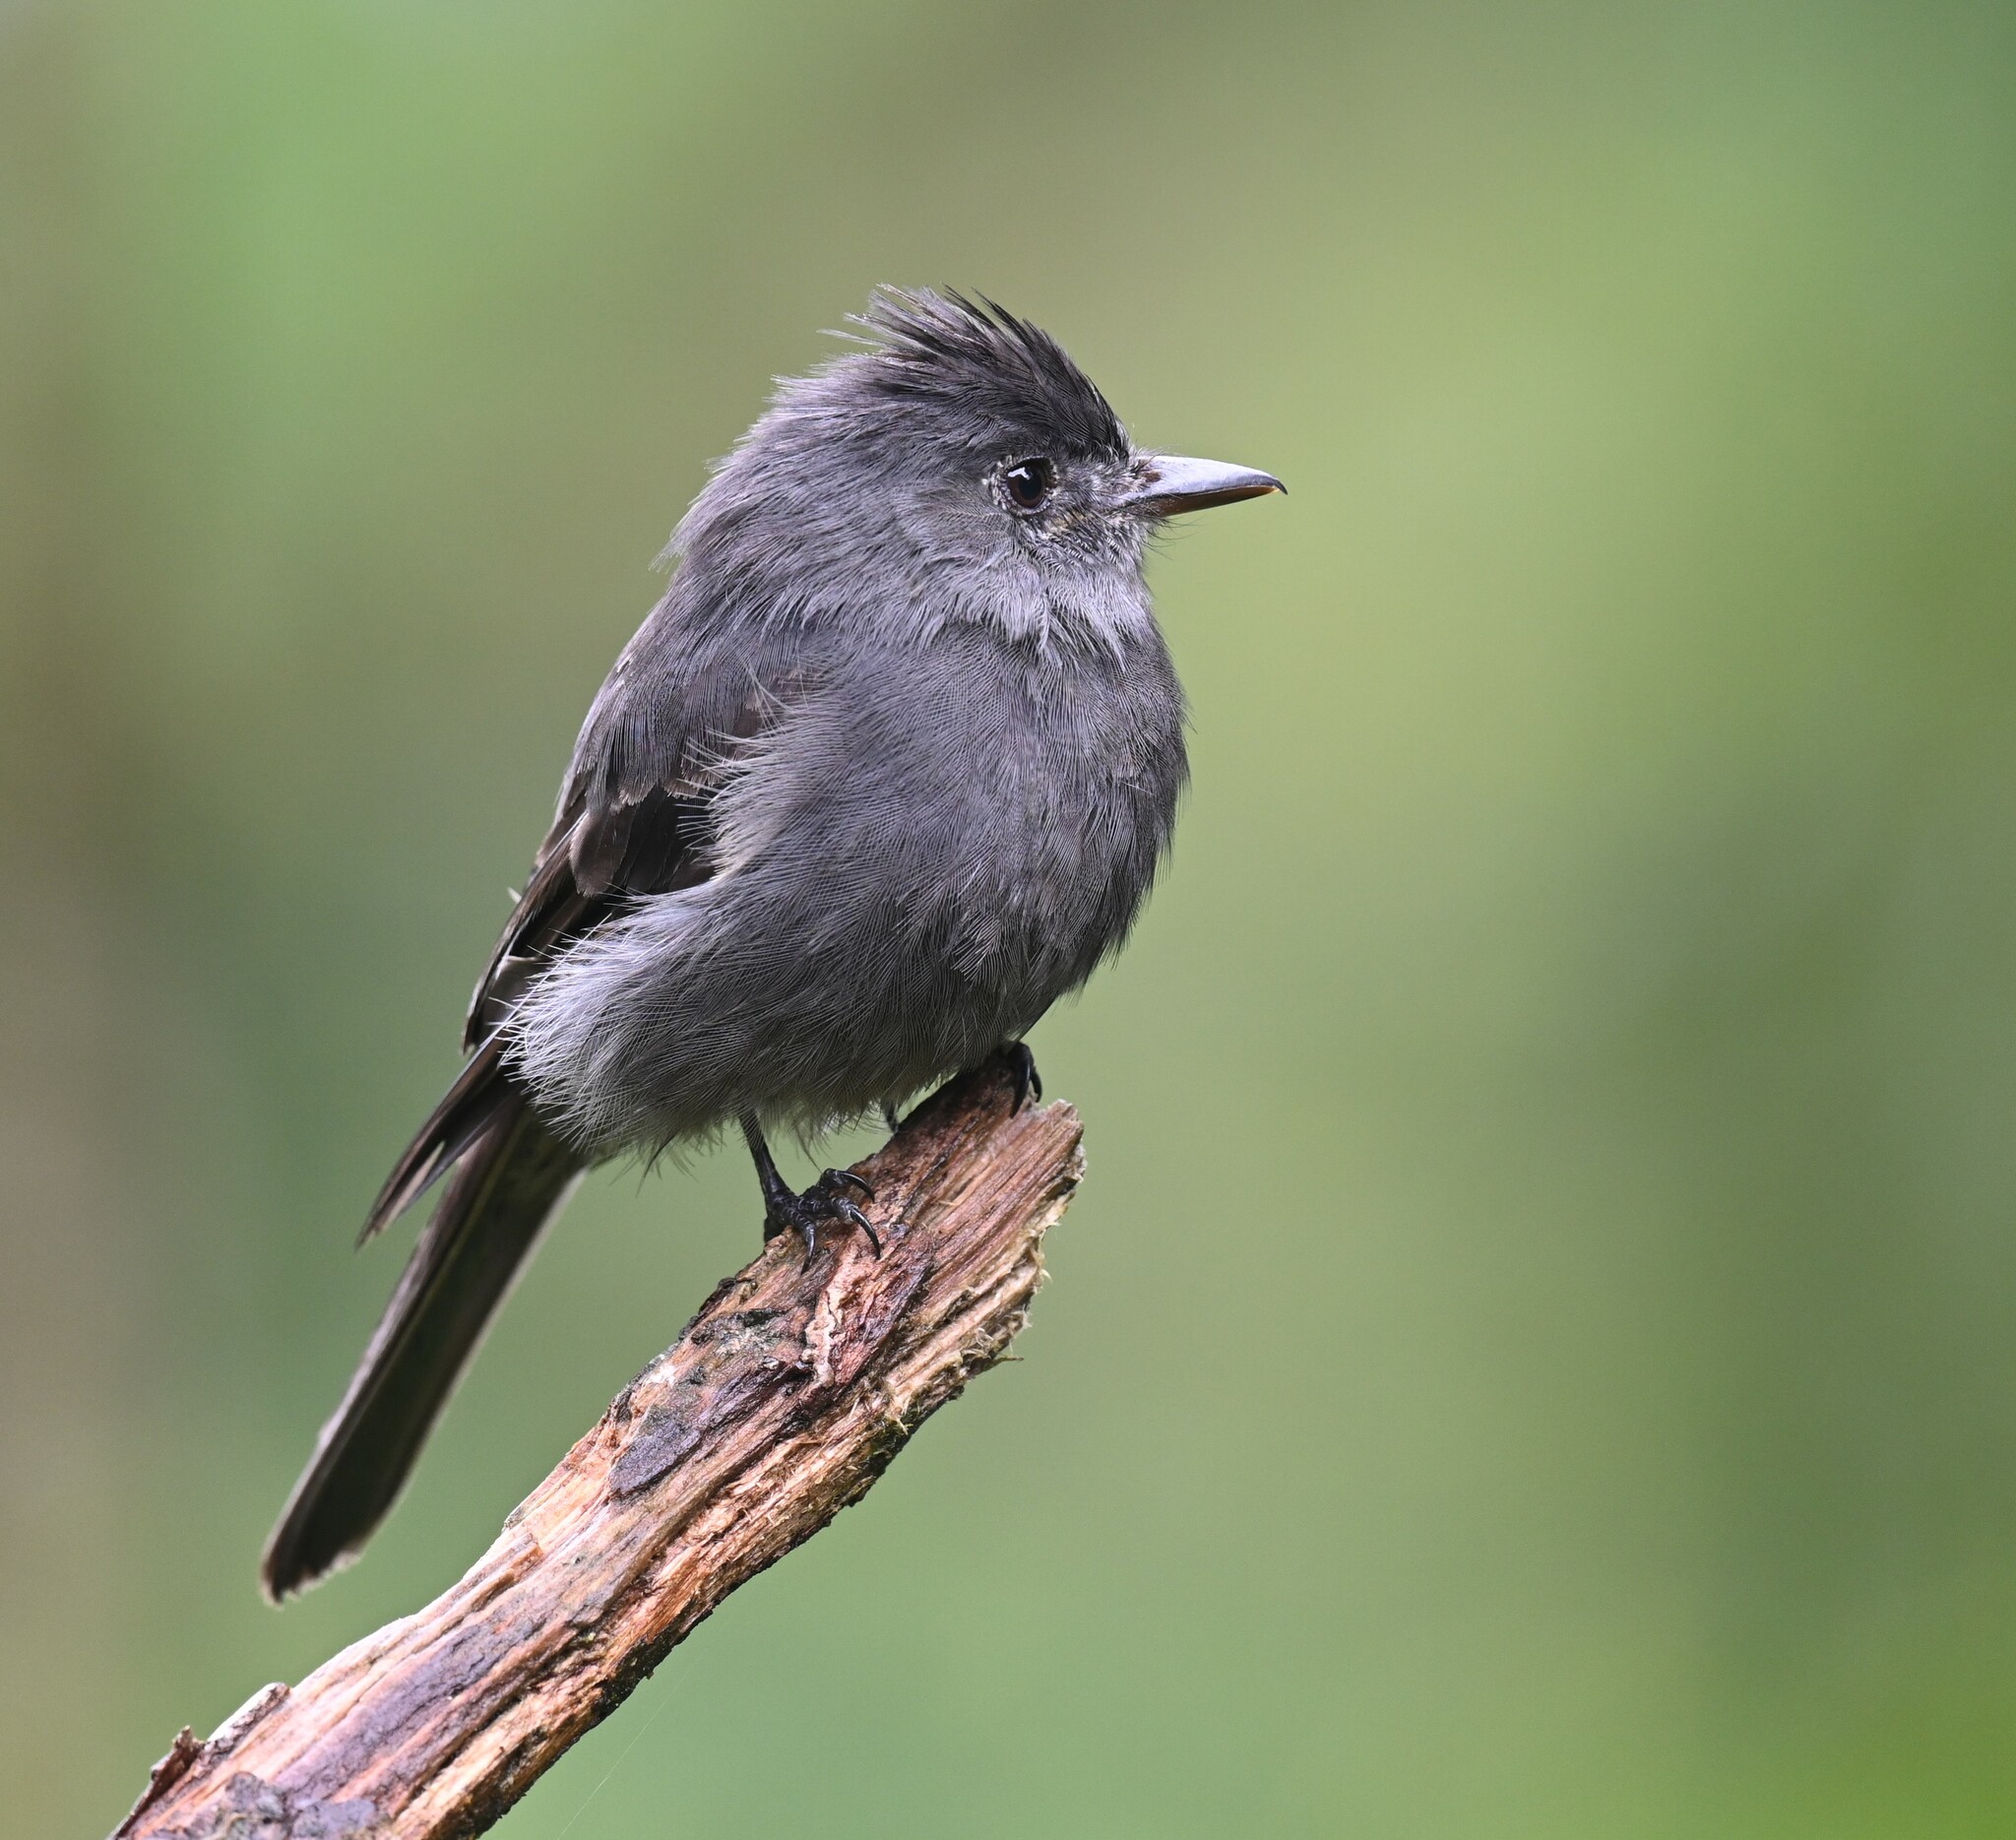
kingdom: Animalia
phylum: Chordata
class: Aves
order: Passeriformes
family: Tyrannidae
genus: Contopus
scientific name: Contopus fumigatus
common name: Smoke-colored pewee
